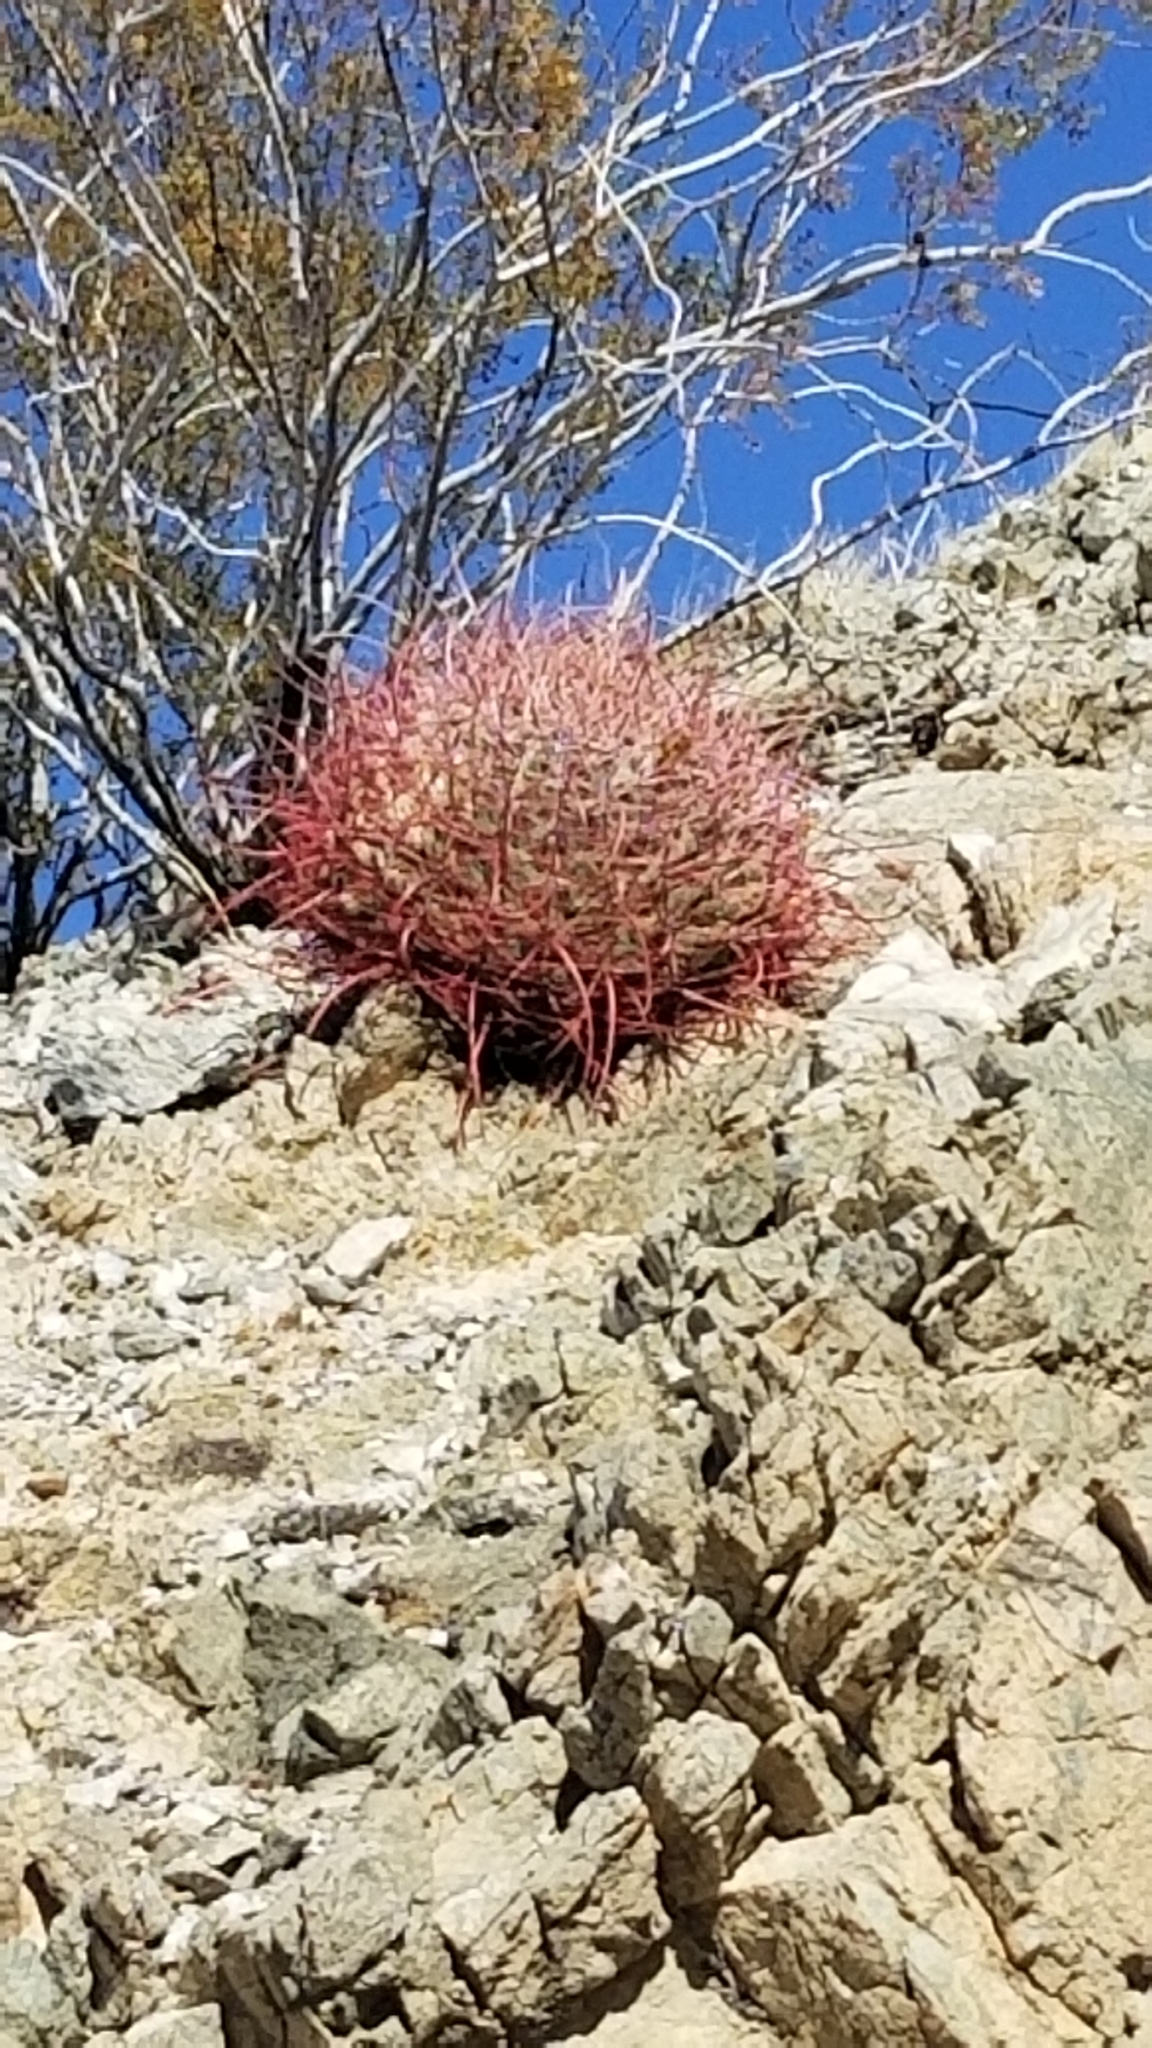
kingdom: Plantae
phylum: Tracheophyta
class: Magnoliopsida
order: Caryophyllales
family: Cactaceae
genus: Ferocactus
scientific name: Ferocactus cylindraceus
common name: California barrel cactus
